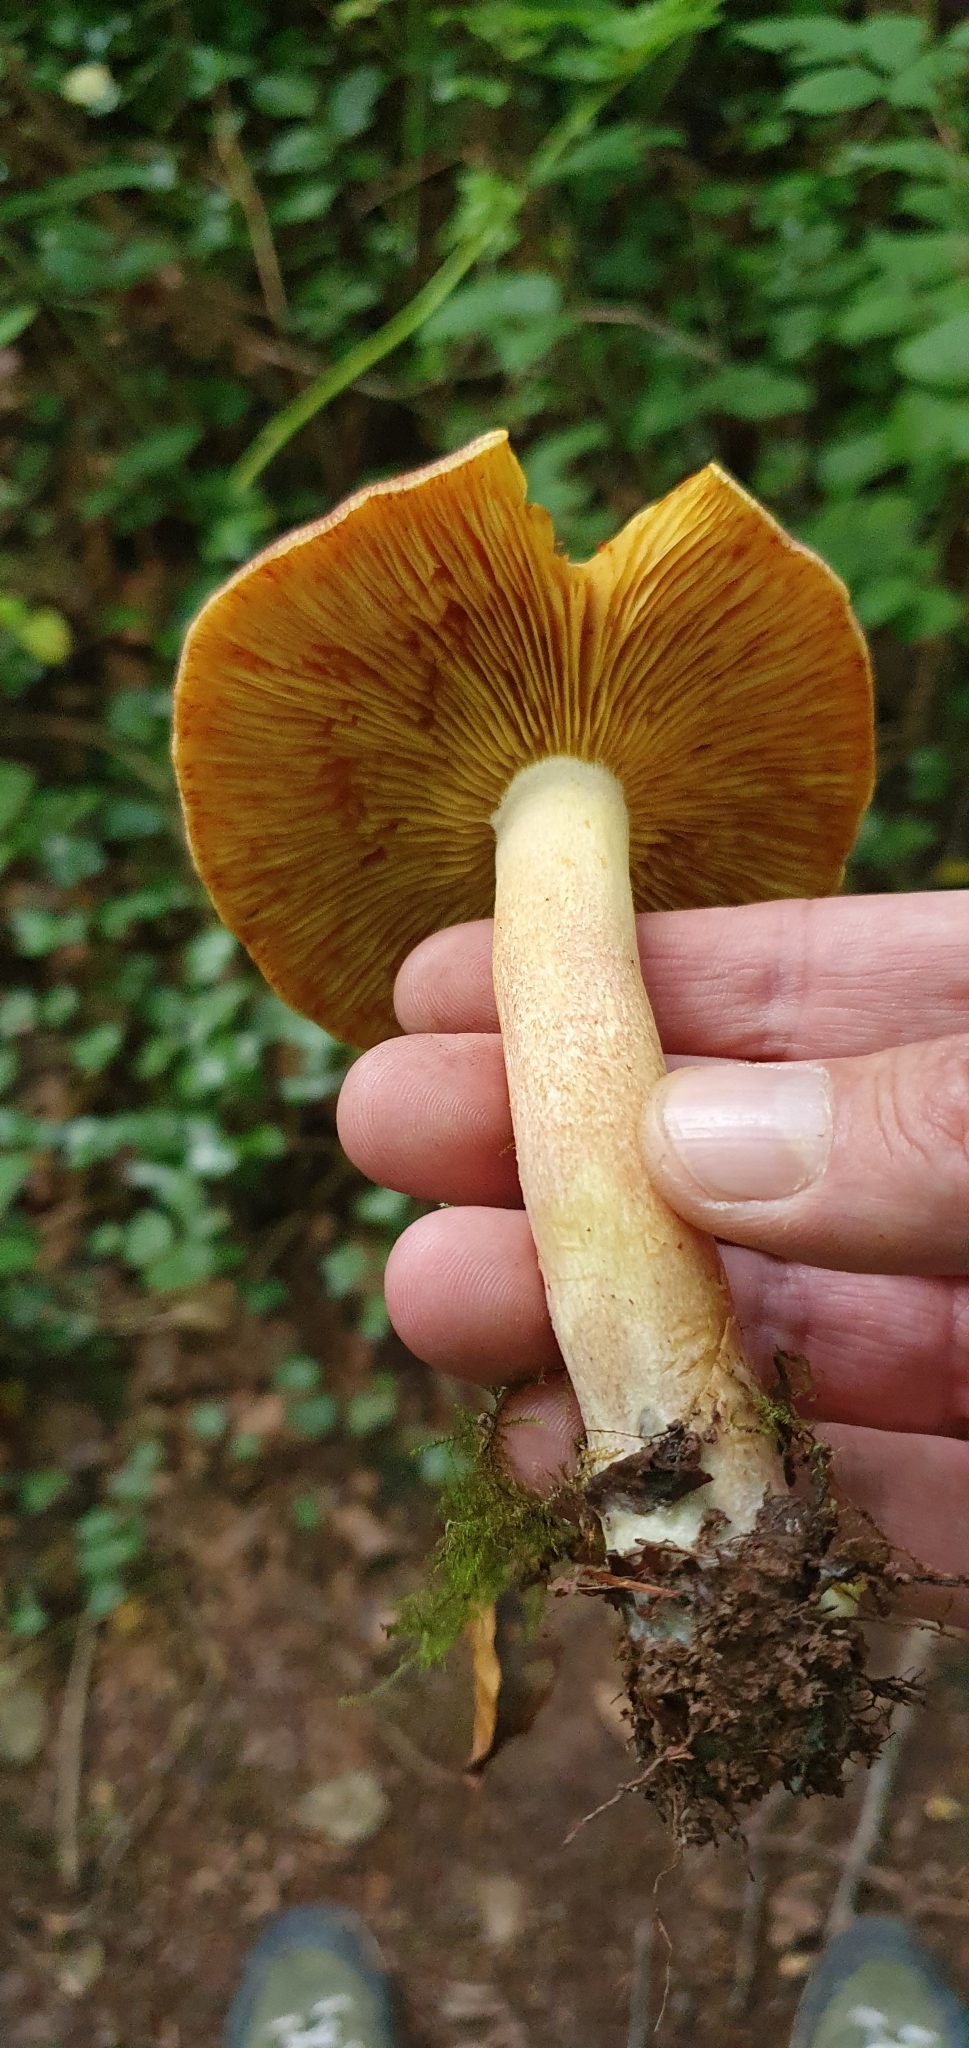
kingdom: Fungi
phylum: Basidiomycota
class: Agaricomycetes
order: Agaricales
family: Tricholomataceae
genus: Tricholomopsis
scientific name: Tricholomopsis rutilans
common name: Plums and custard
